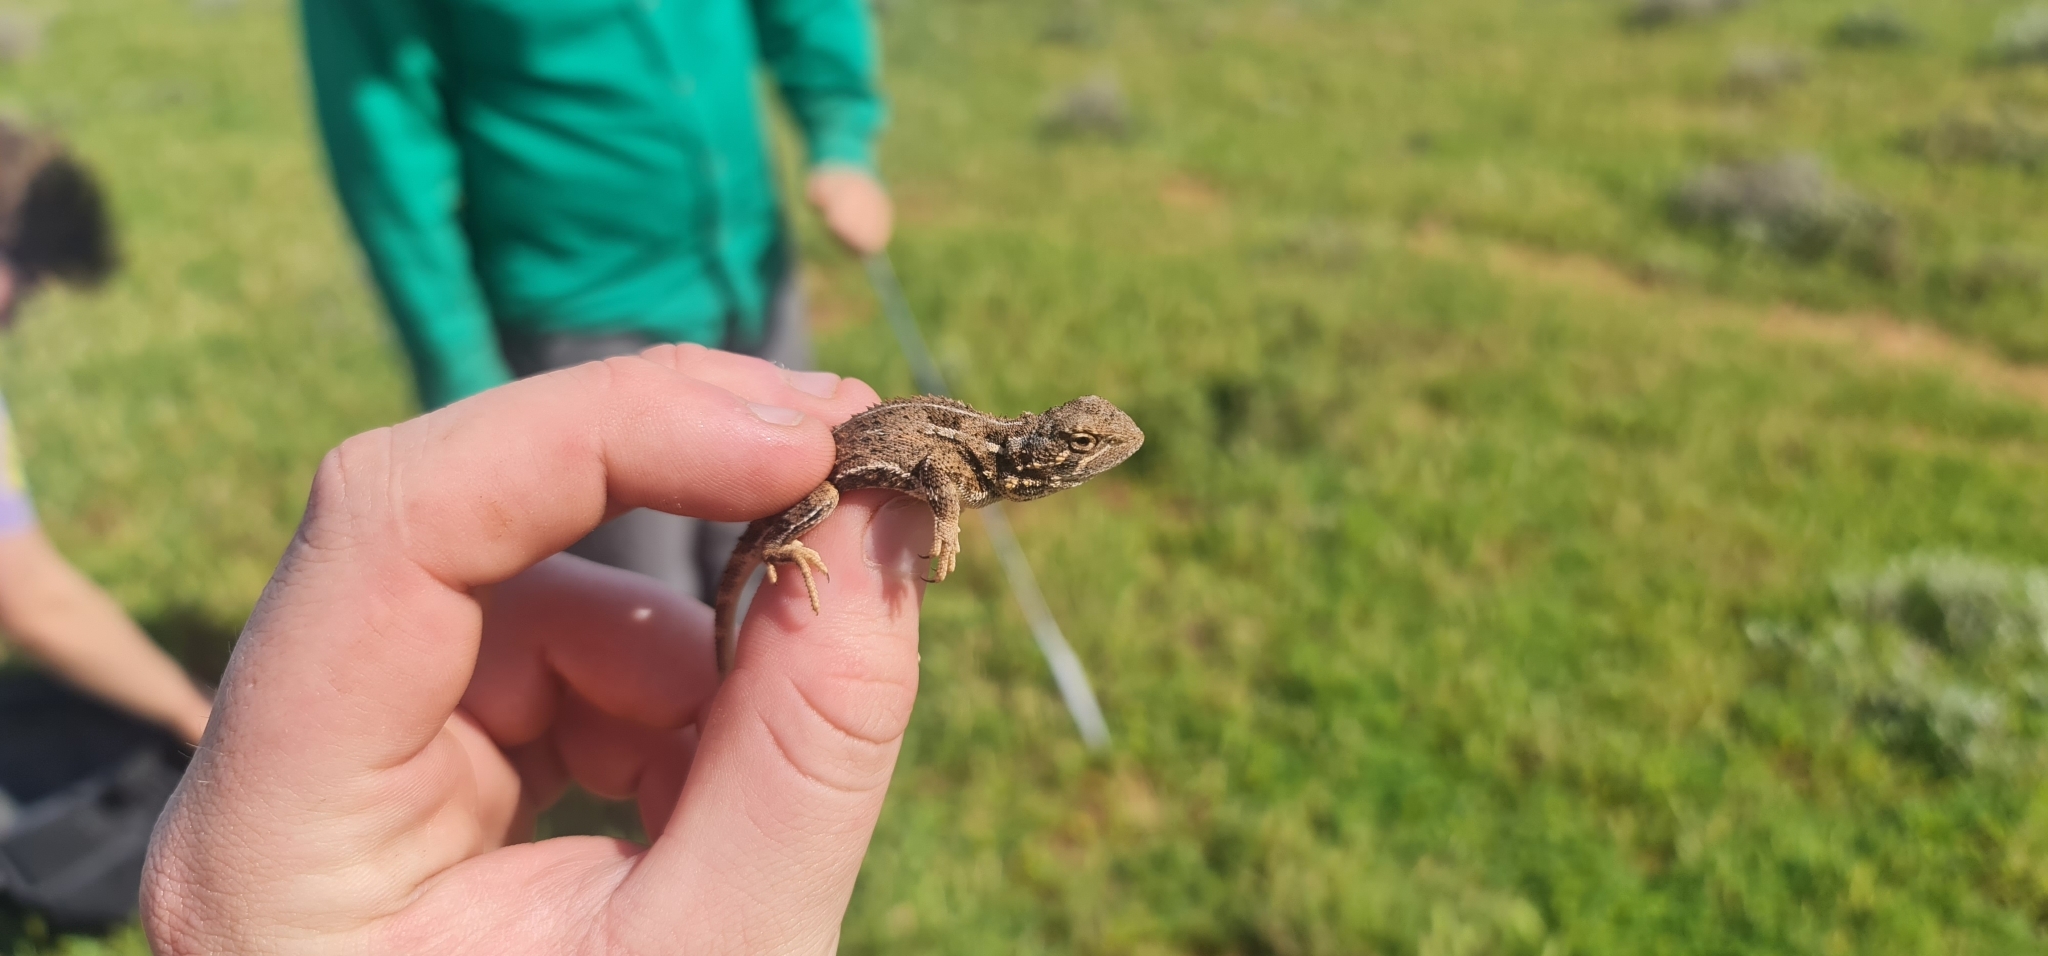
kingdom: Animalia
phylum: Chordata
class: Squamata
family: Agamidae
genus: Tympanocryptis
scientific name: Tympanocryptis tetraporophora
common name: Eyrean earless dragon
